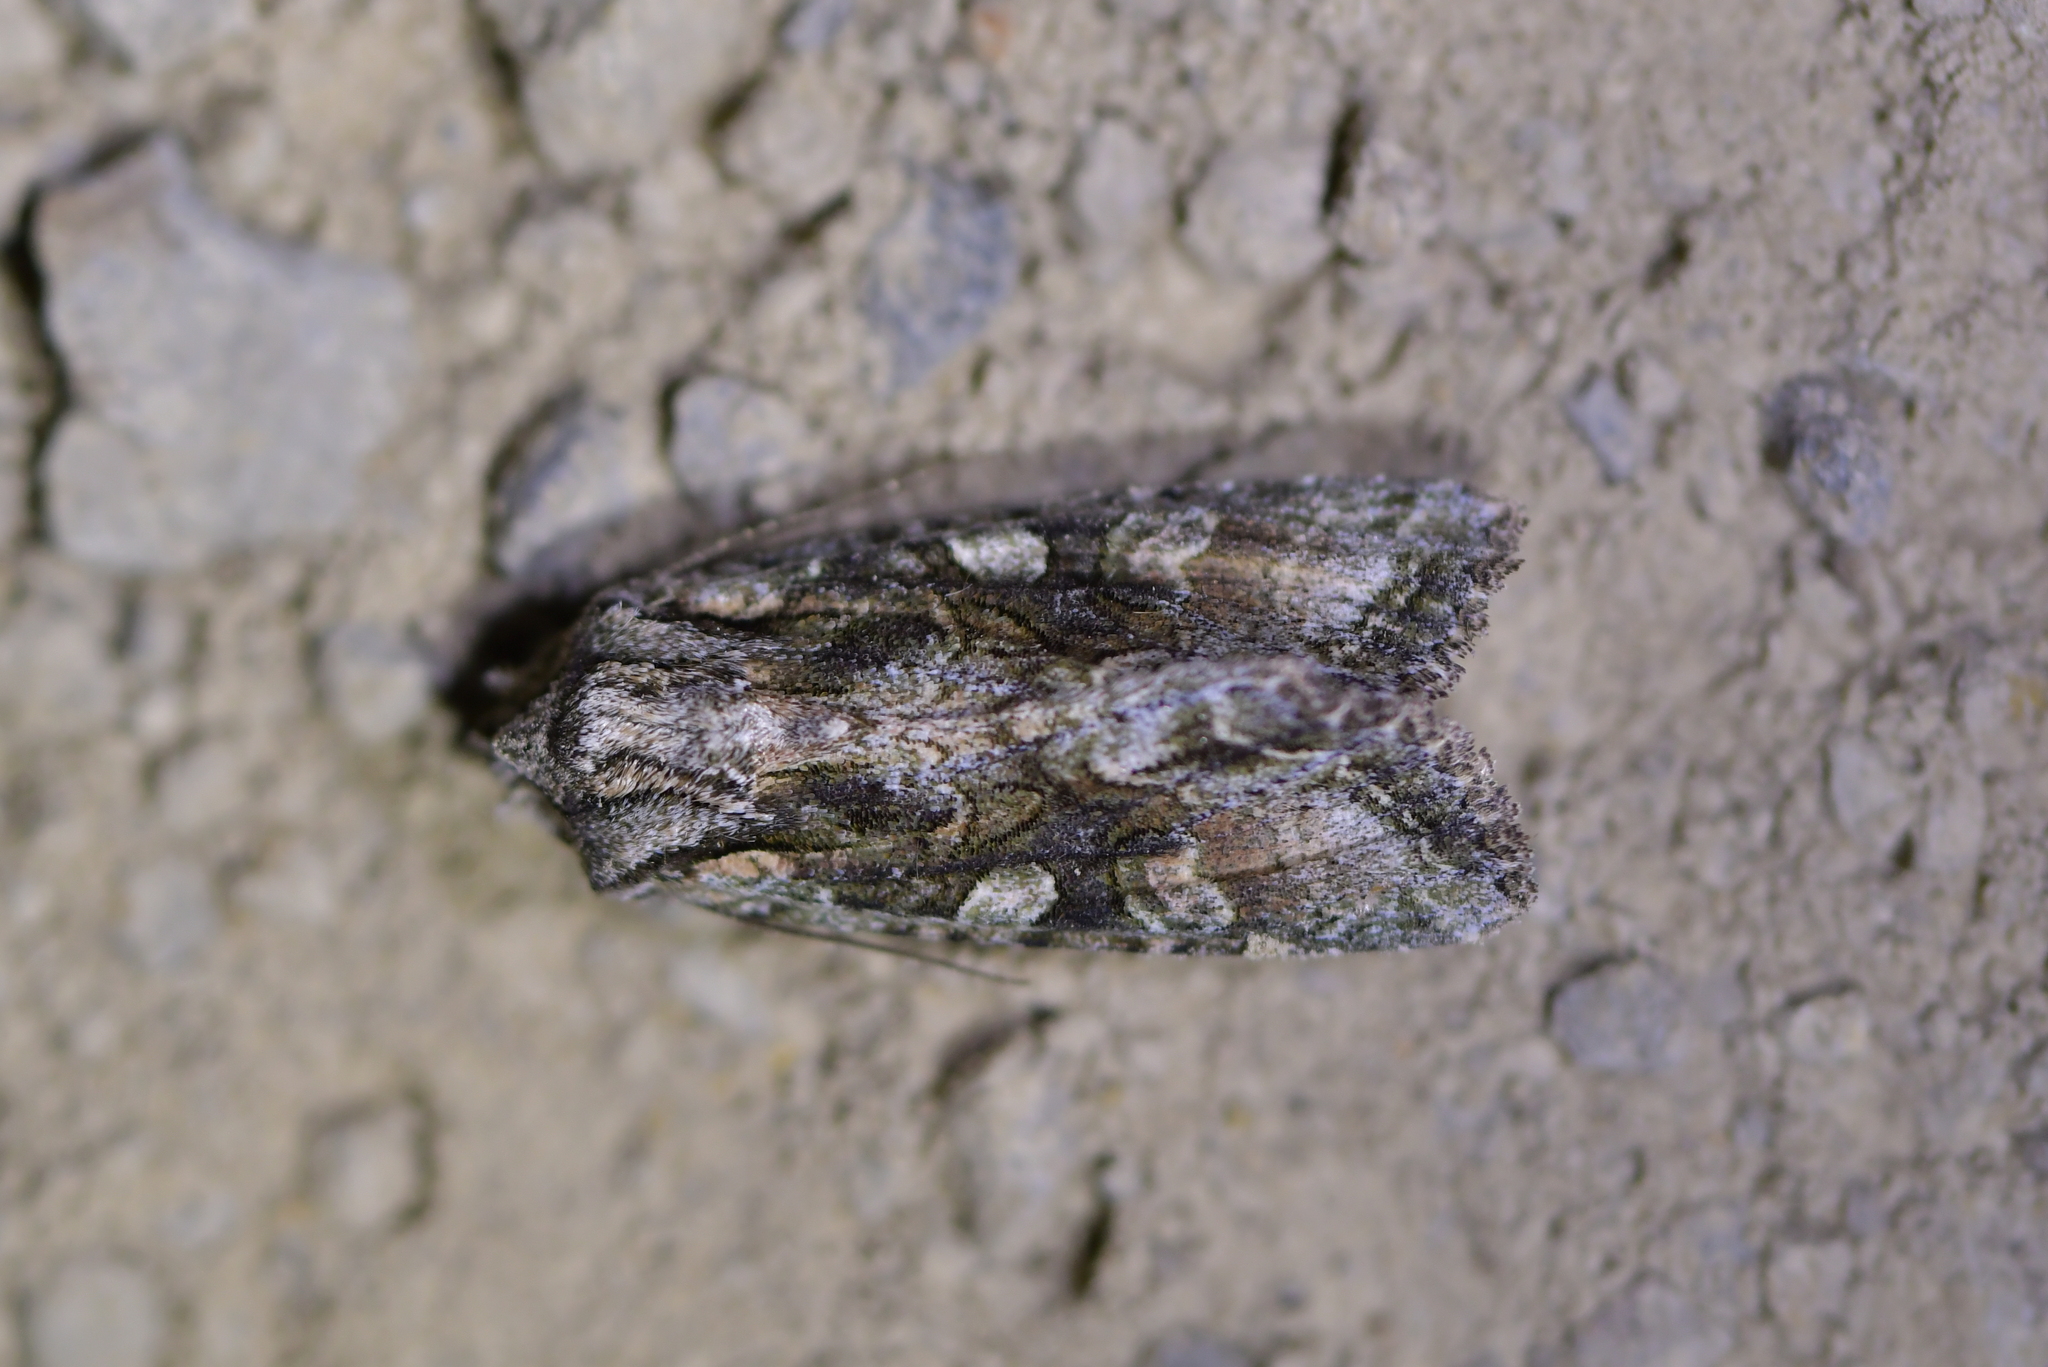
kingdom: Animalia
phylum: Arthropoda
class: Insecta
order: Lepidoptera
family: Noctuidae
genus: Ichneutica
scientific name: Ichneutica mutans
